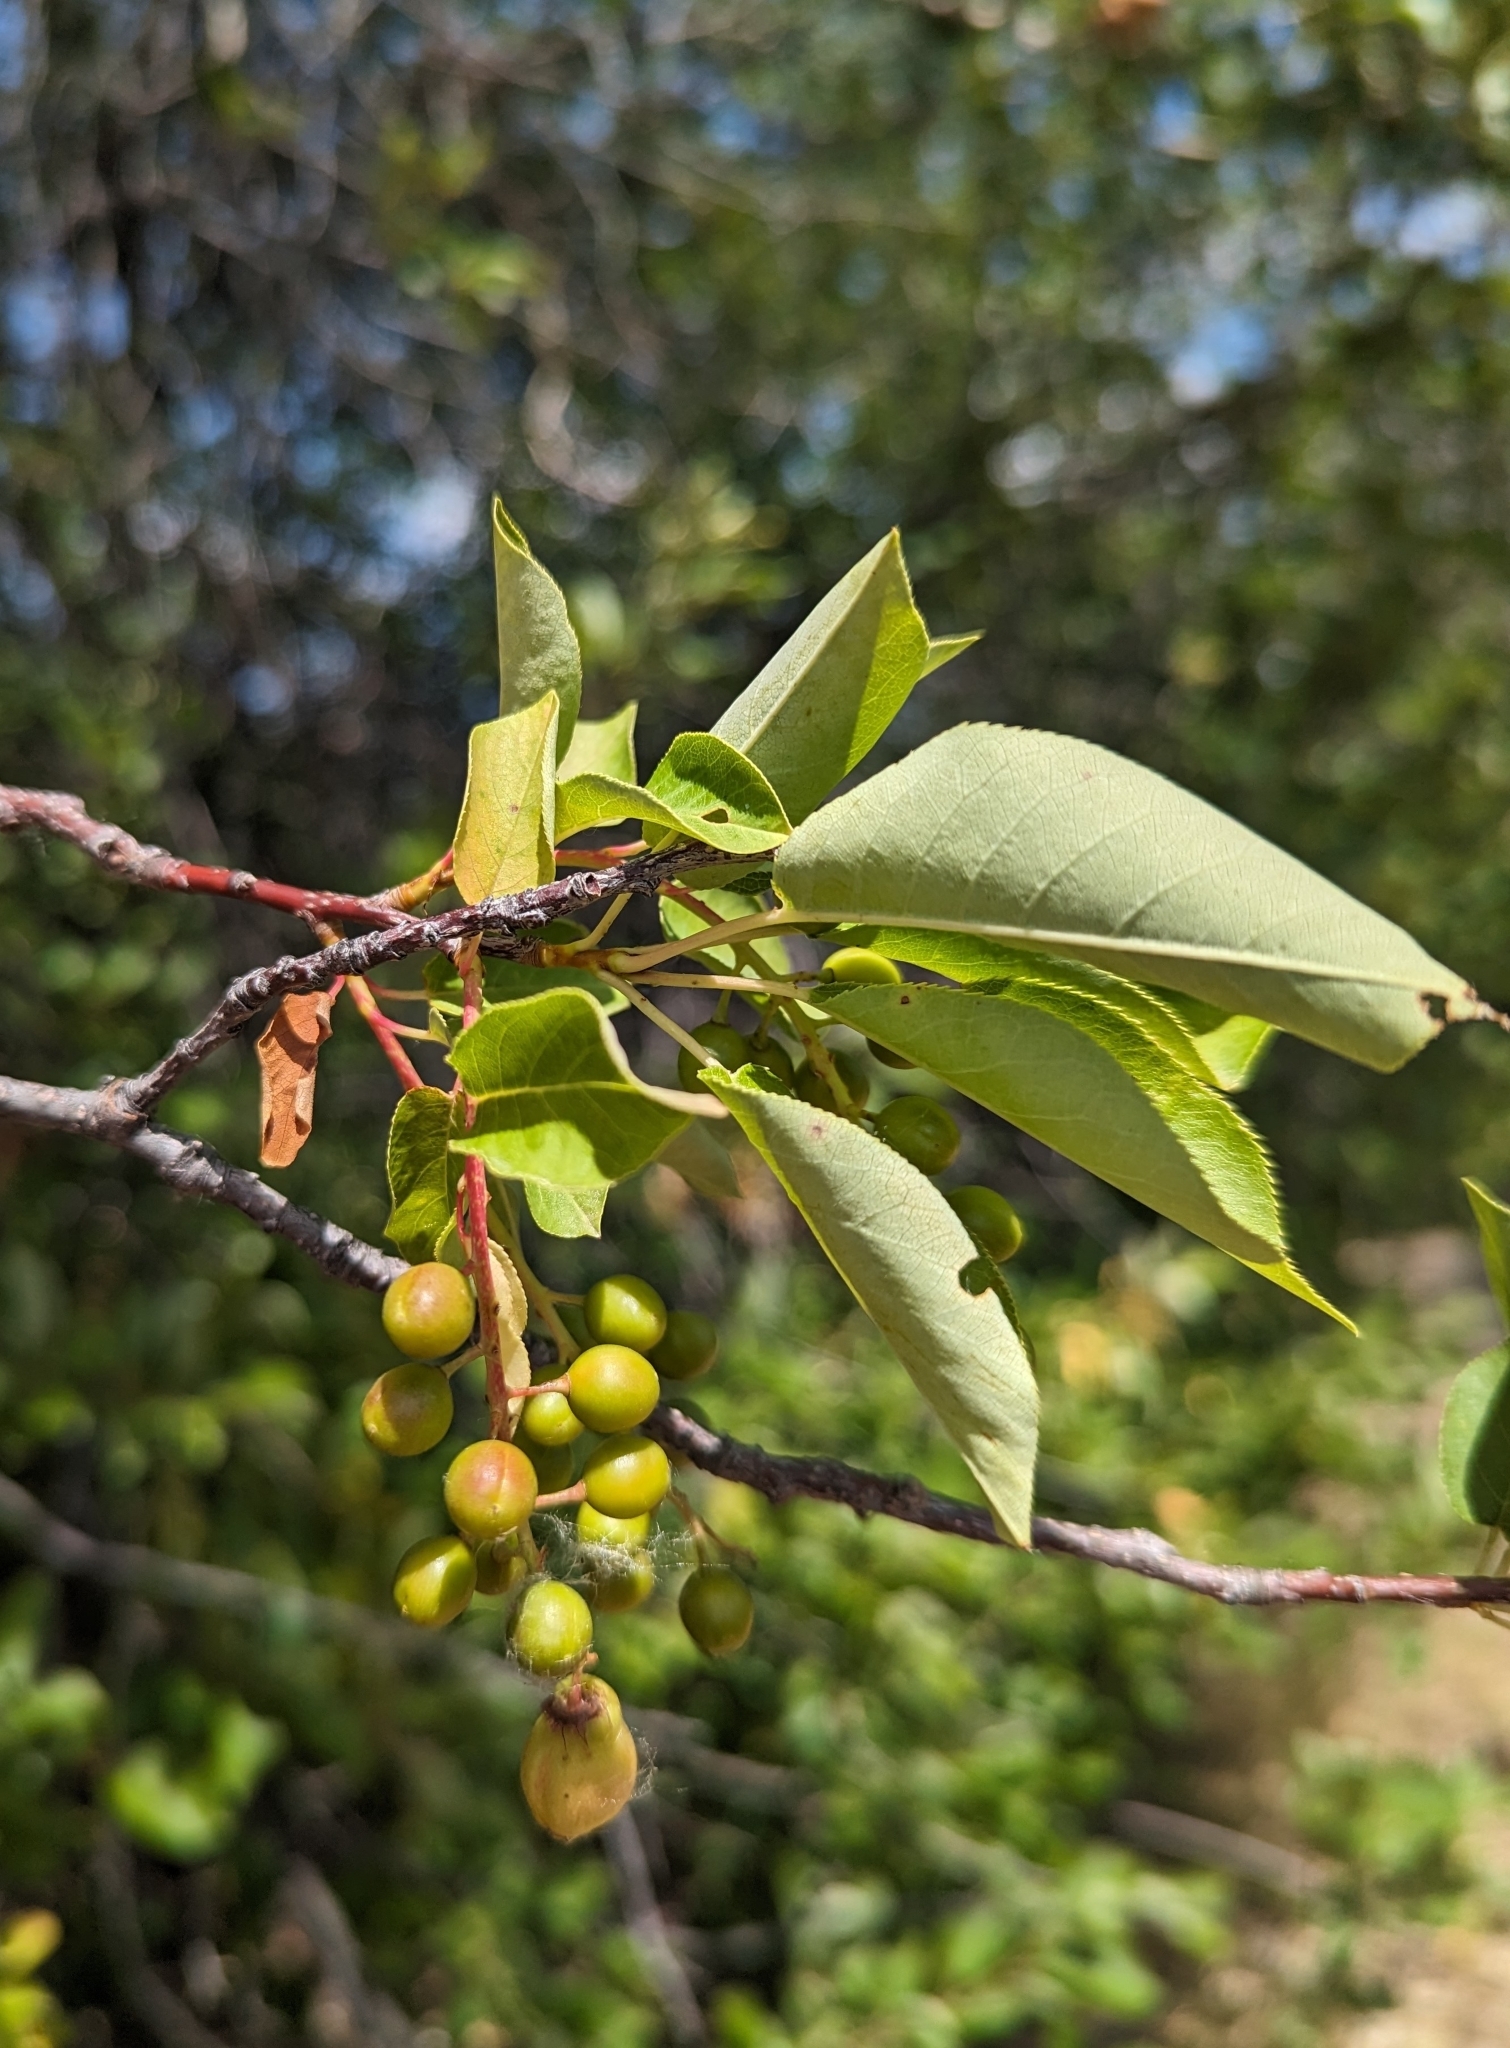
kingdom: Plantae
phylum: Tracheophyta
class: Magnoliopsida
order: Rosales
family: Rosaceae
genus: Prunus
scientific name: Prunus virginiana
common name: Chokecherry
